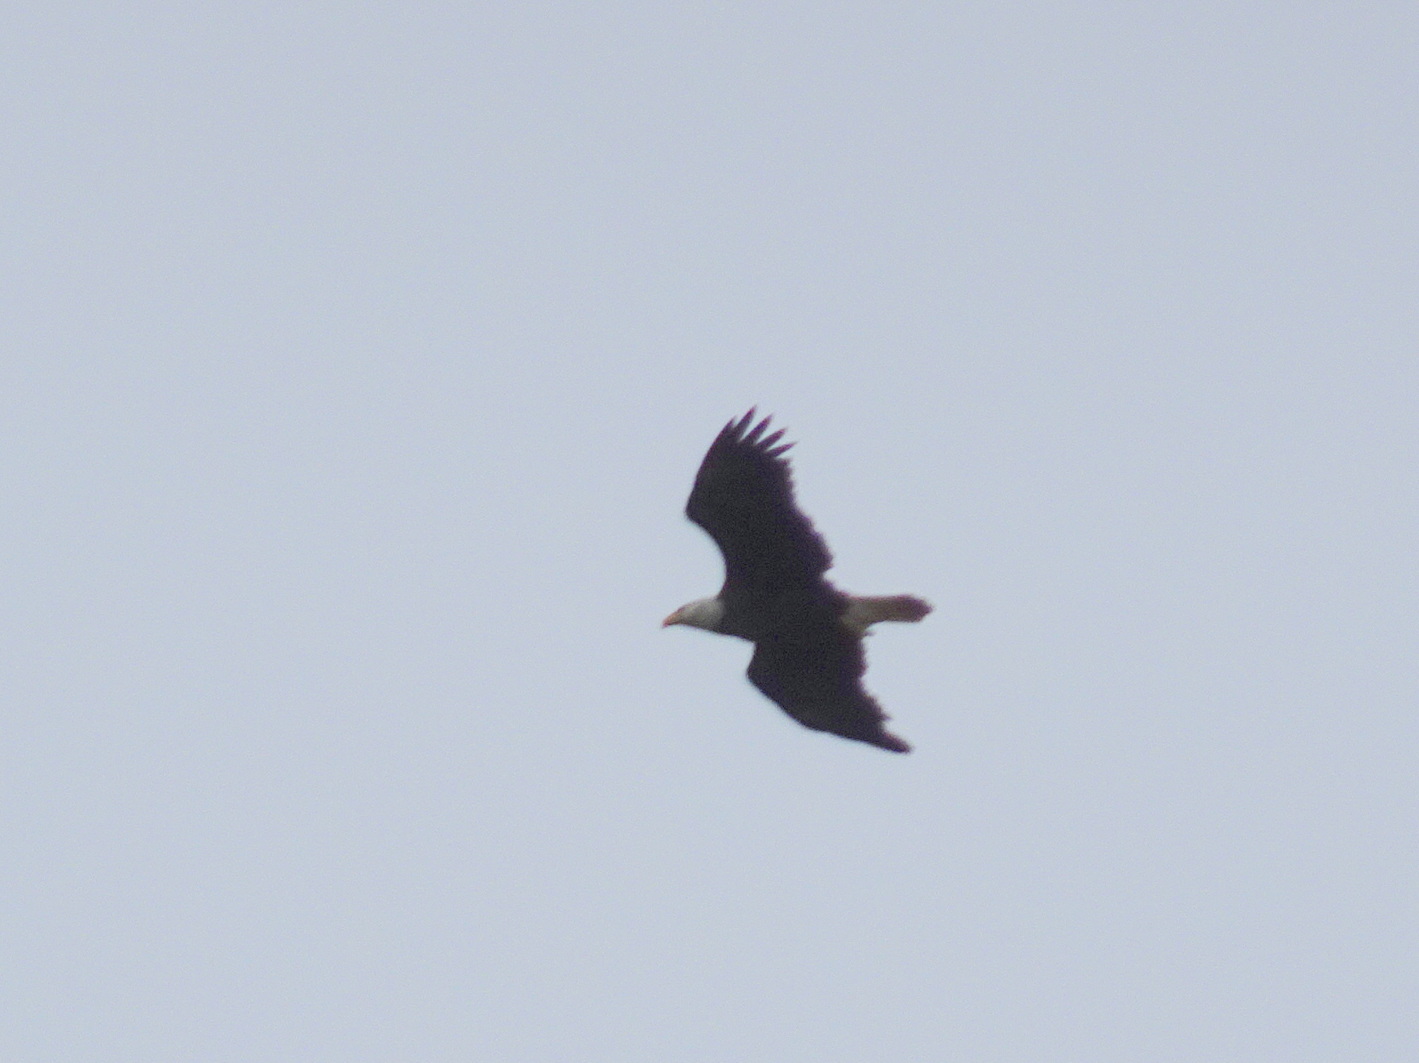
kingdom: Animalia
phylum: Chordata
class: Aves
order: Accipitriformes
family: Accipitridae
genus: Haliaeetus
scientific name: Haliaeetus leucocephalus
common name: Bald eagle
